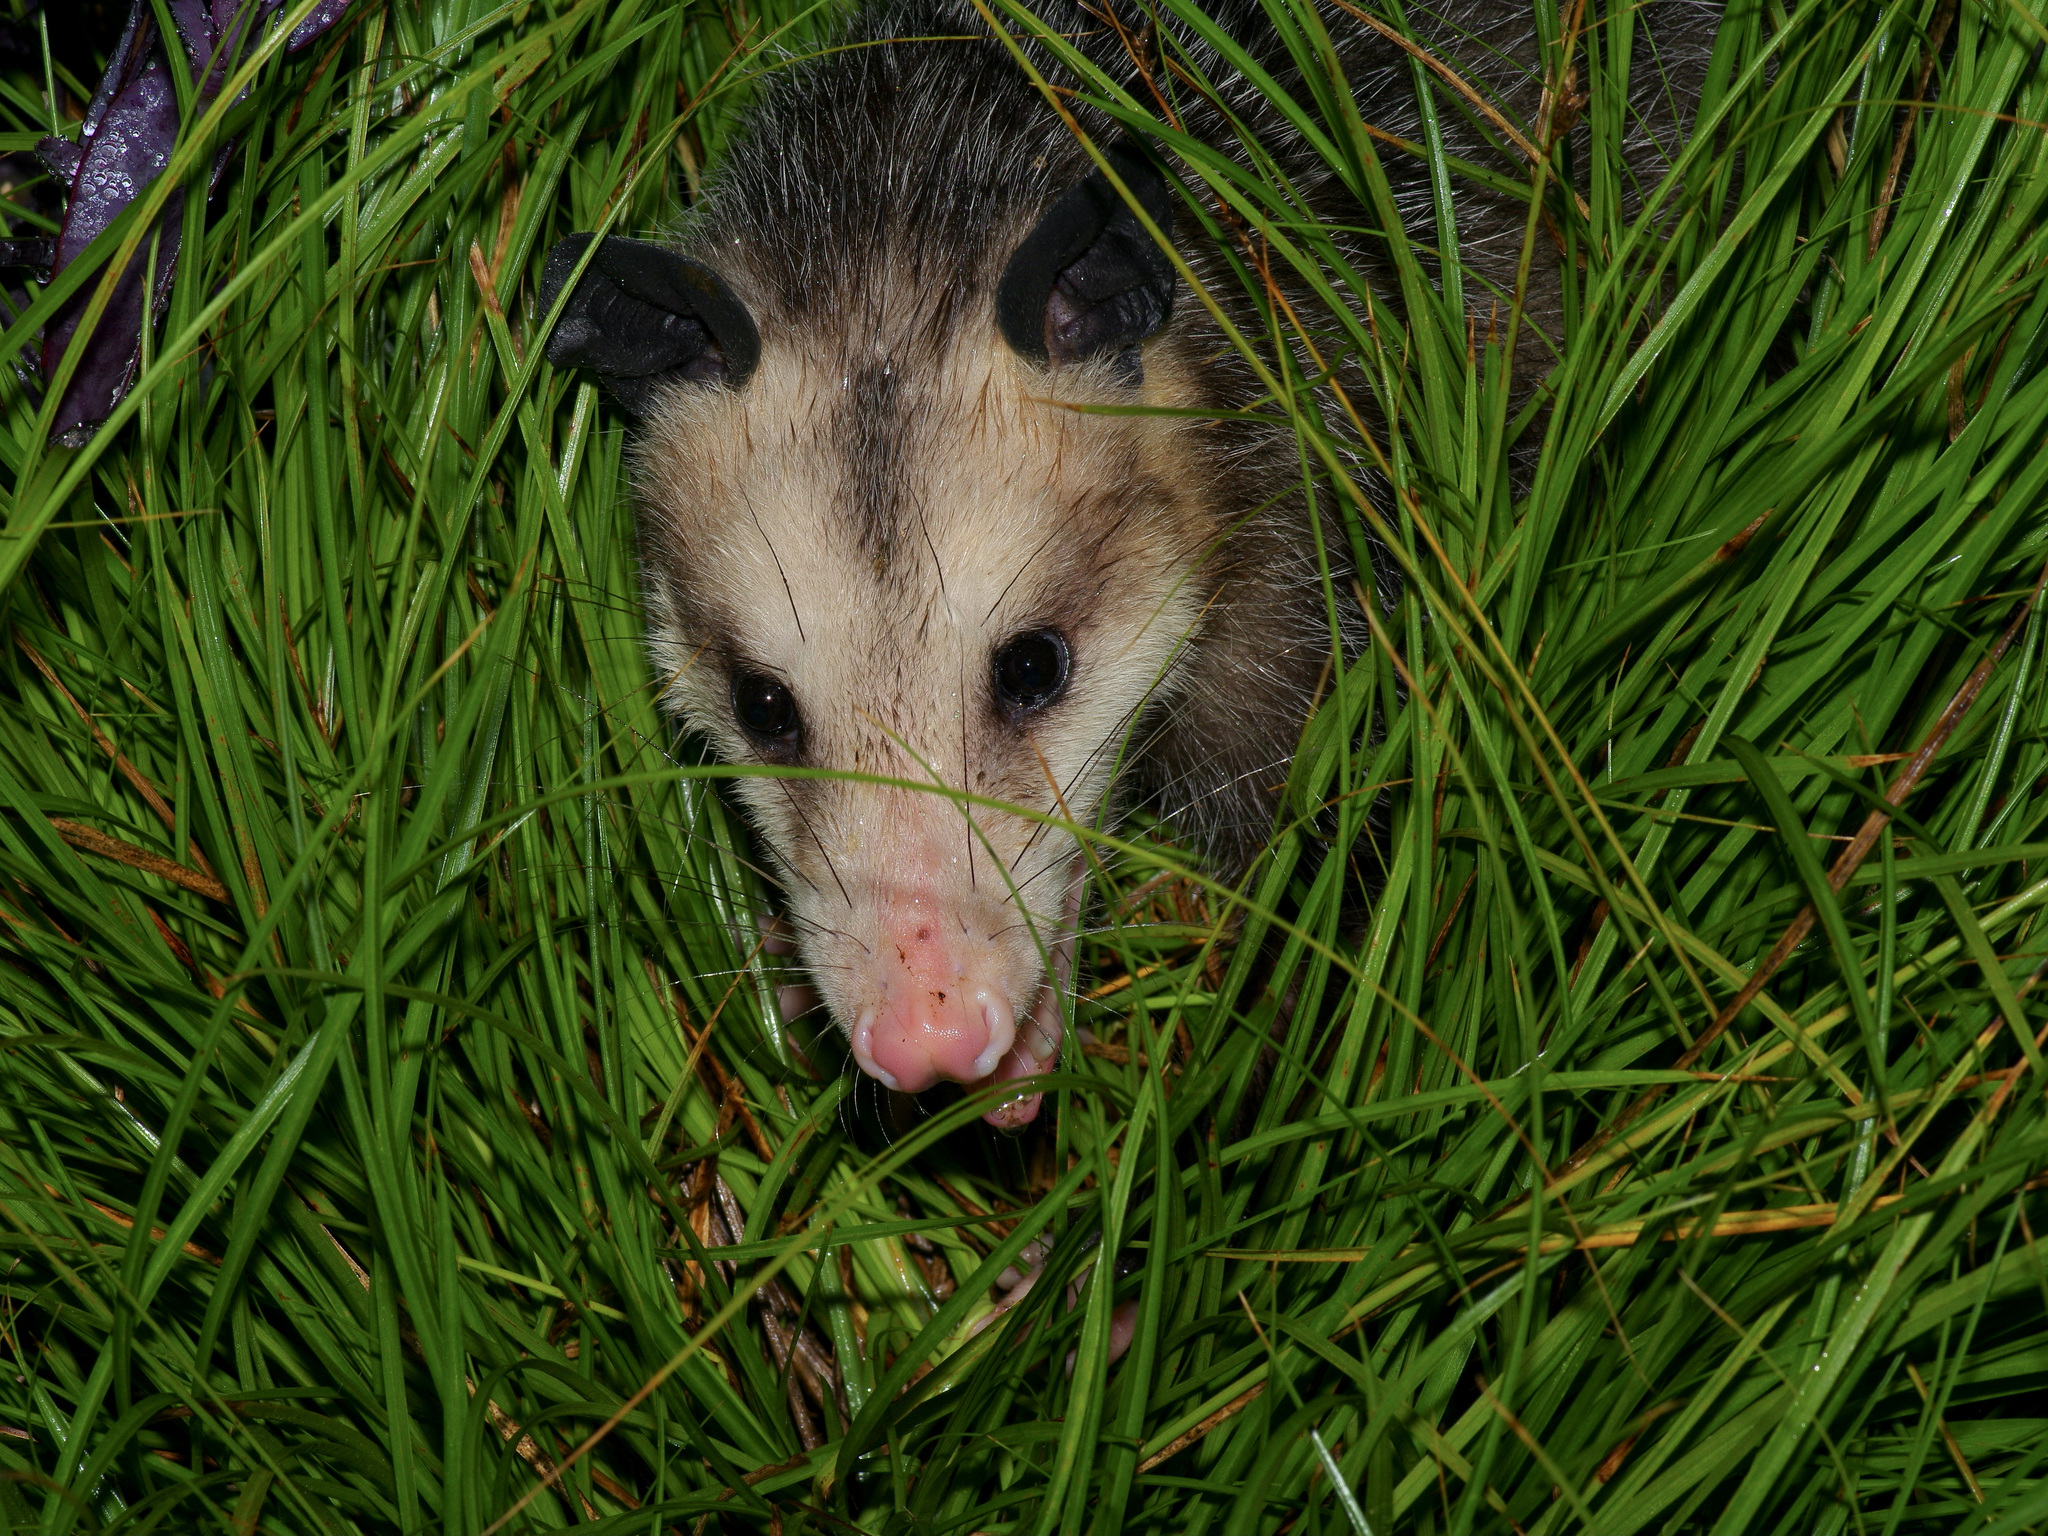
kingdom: Animalia
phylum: Chordata
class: Mammalia
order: Didelphimorphia
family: Didelphidae
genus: Didelphis
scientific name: Didelphis virginiana
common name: Virginia opossum
